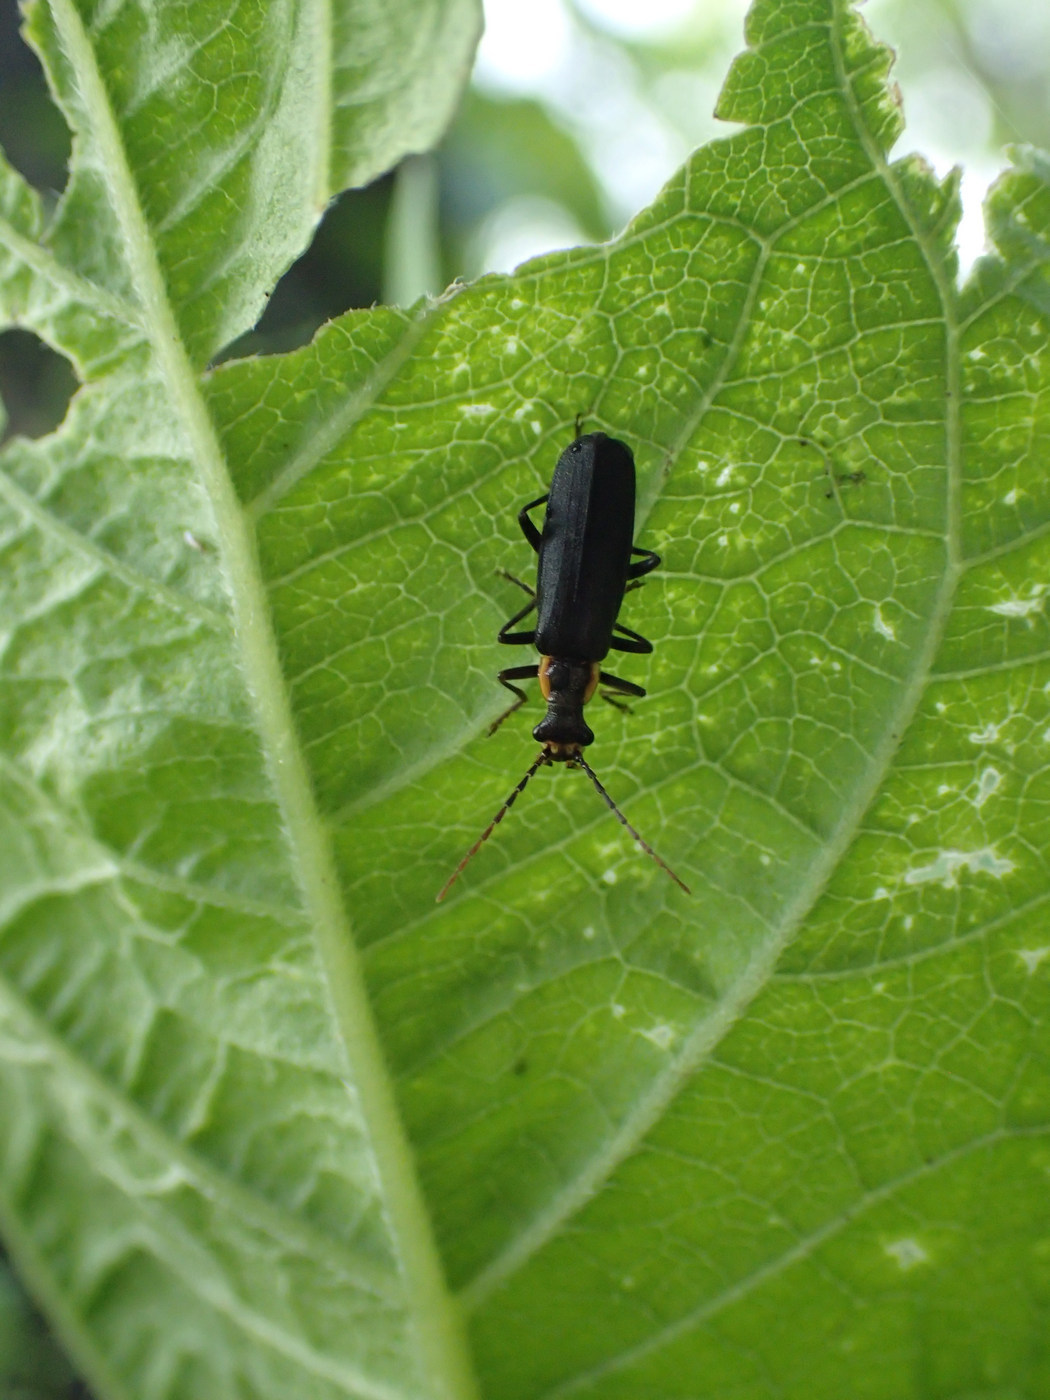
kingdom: Animalia
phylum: Arthropoda
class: Insecta
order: Coleoptera
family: Cantharidae
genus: Podabrus
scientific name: Podabrus rugosulus
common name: Wrinkled soldier beetle
